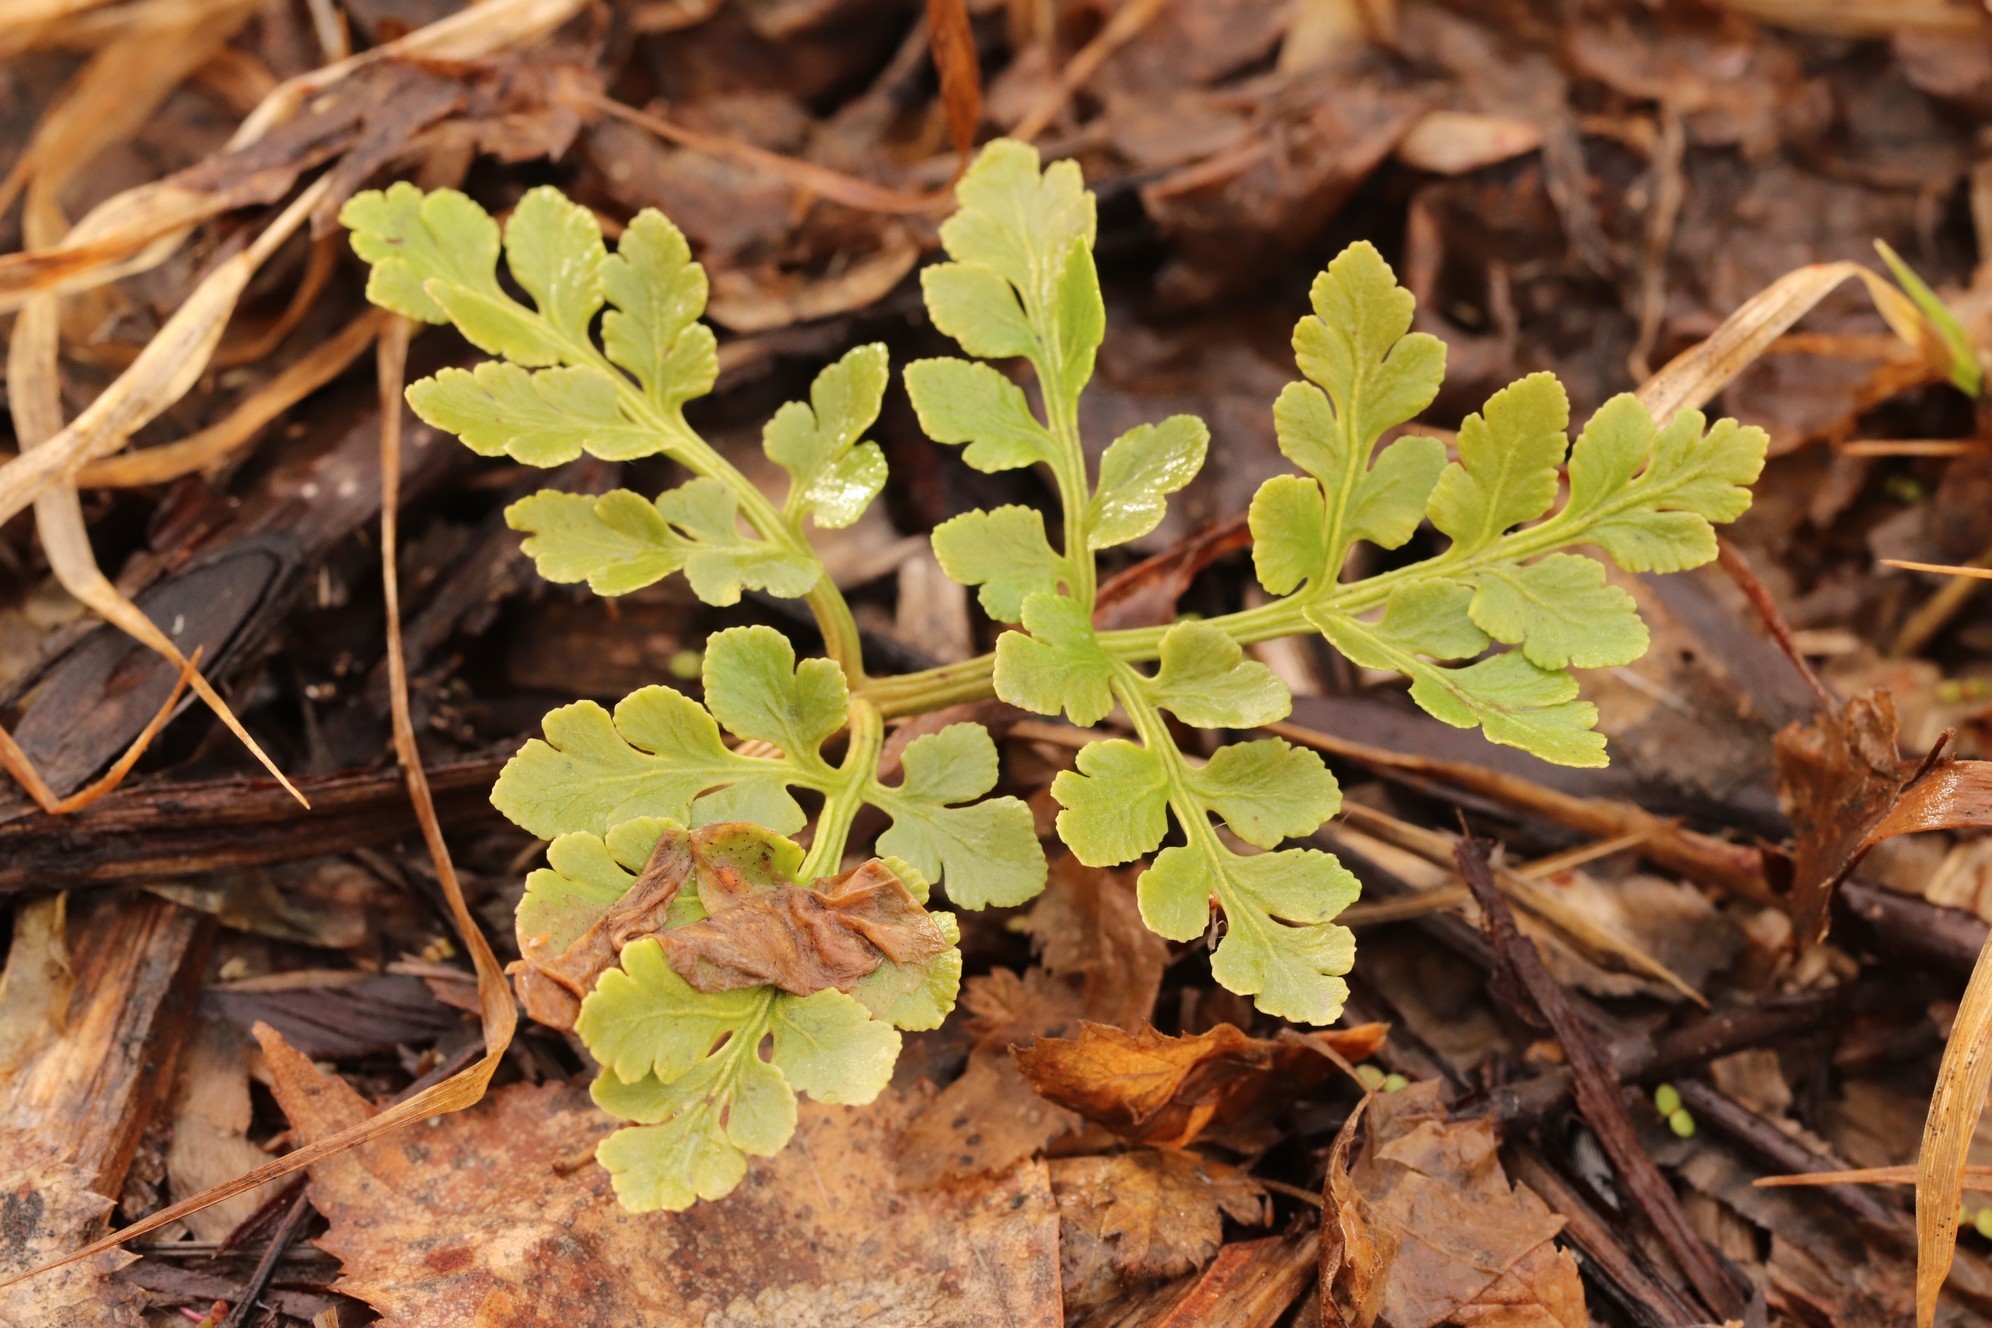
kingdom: Plantae
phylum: Tracheophyta
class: Polypodiopsida
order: Ophioglossales
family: Ophioglossaceae
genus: Sceptridium
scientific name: Sceptridium multifidum
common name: Leathery grape fern
